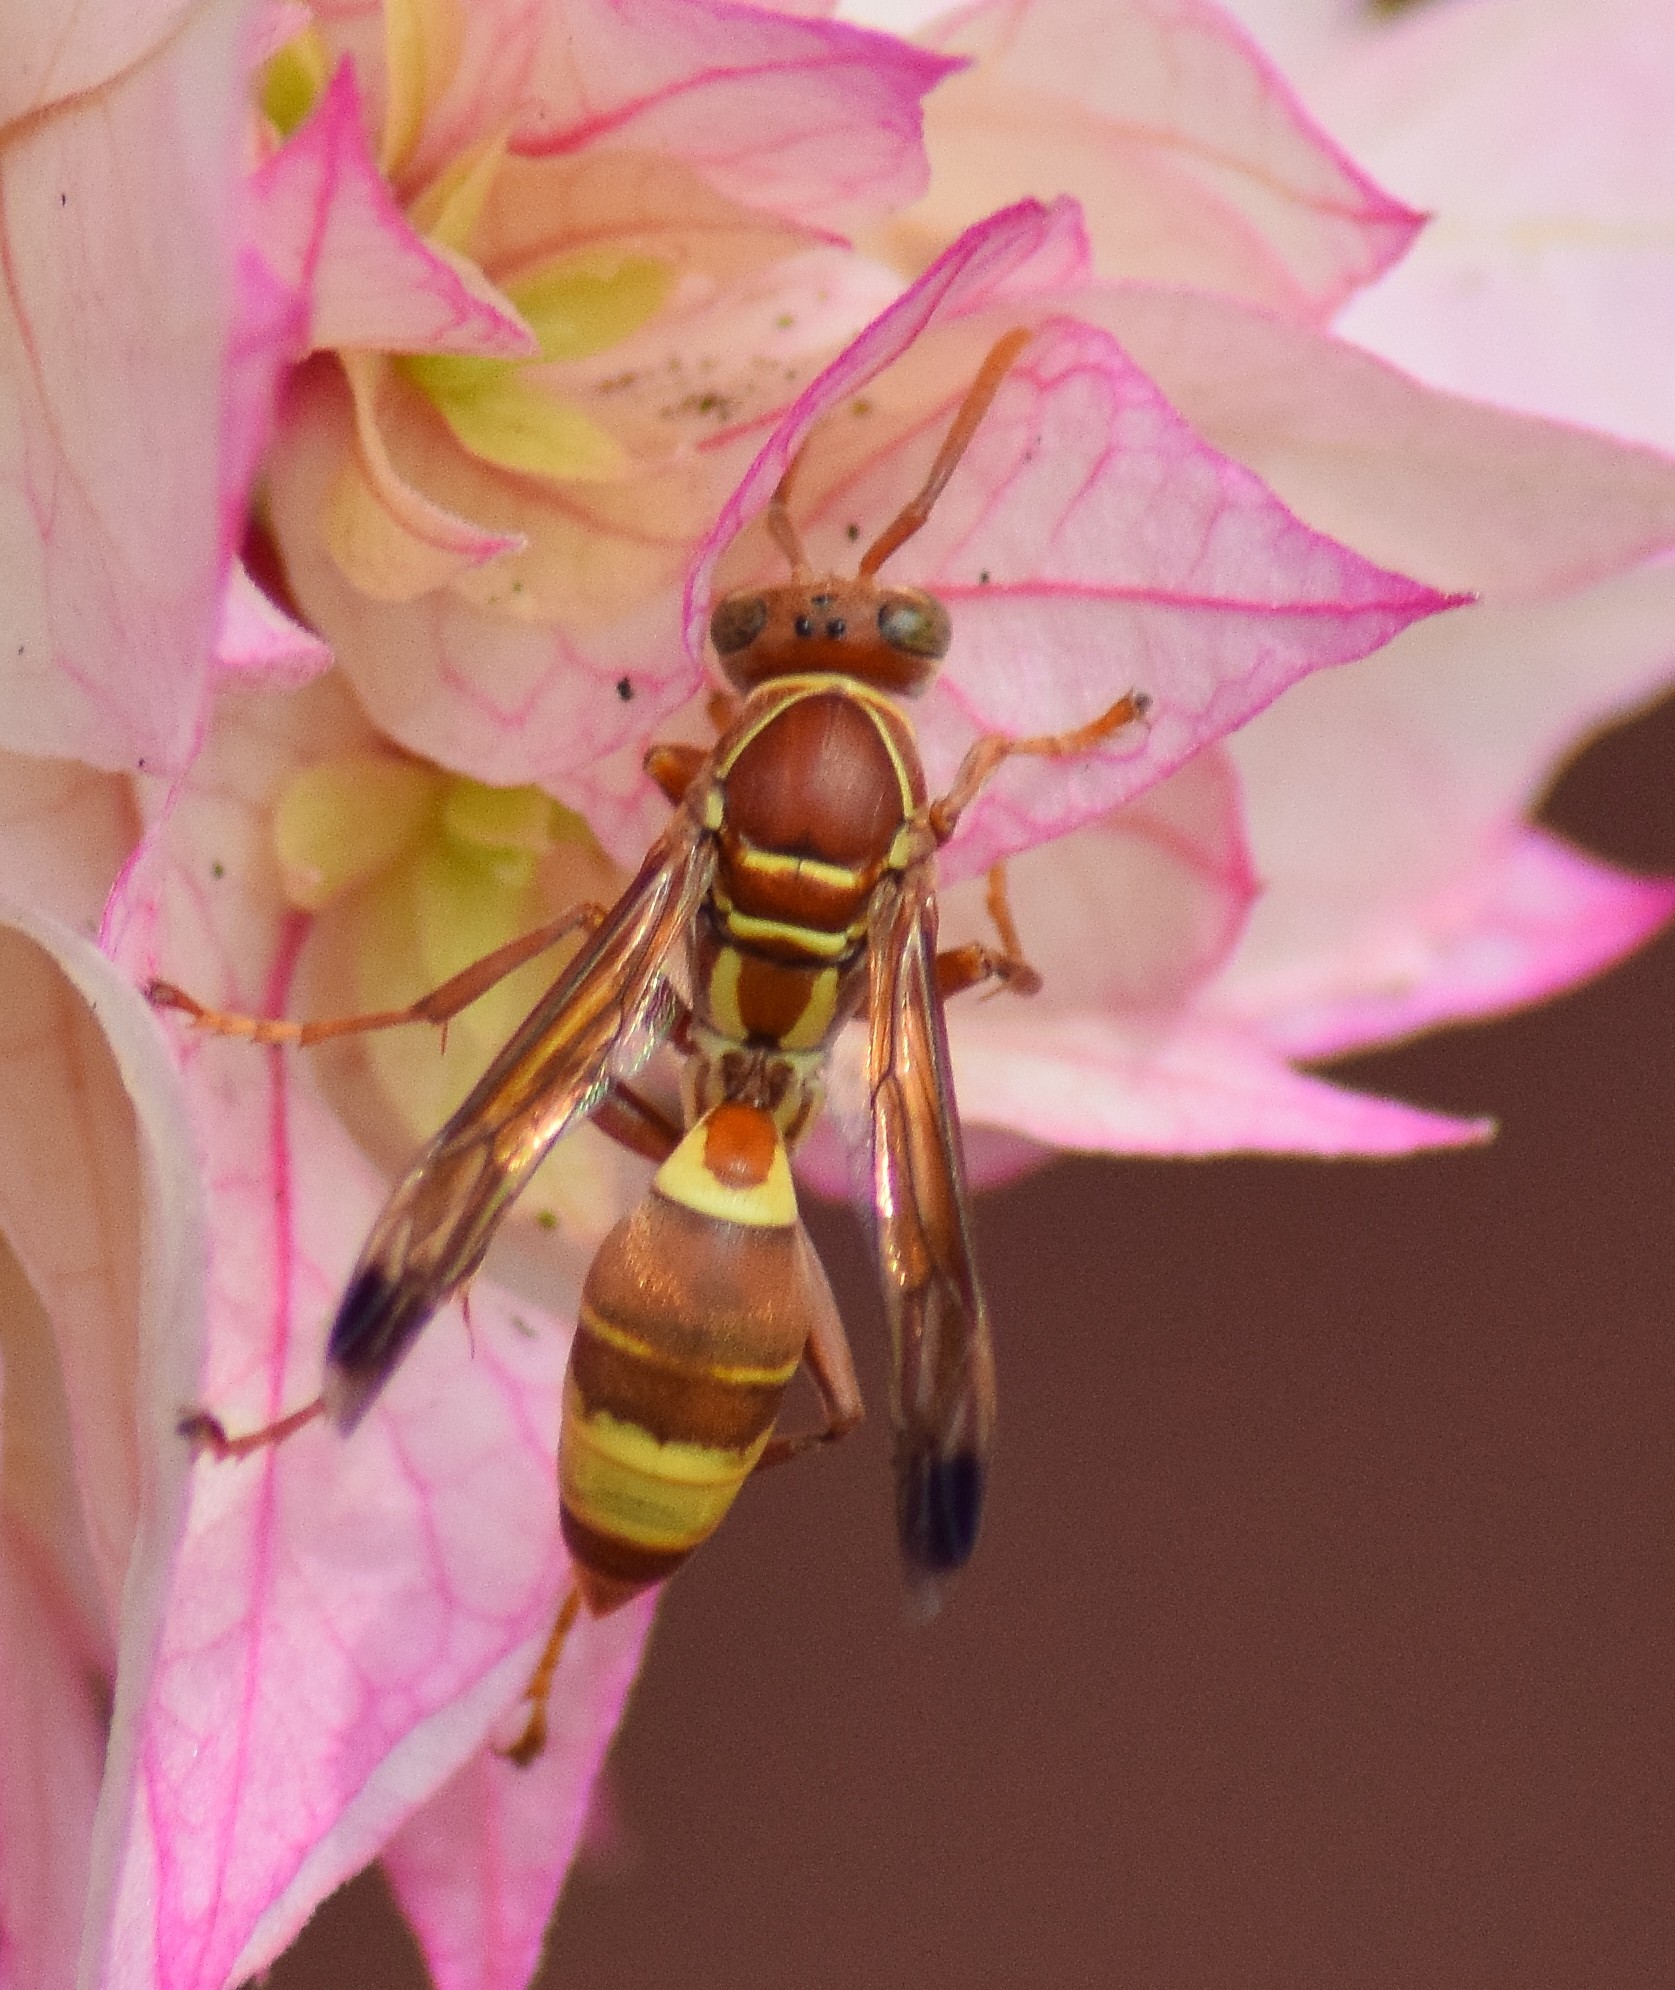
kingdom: Animalia
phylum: Arthropoda
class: Insecta
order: Hymenoptera
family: Eumenidae
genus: Polistes
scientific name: Polistes stigma
